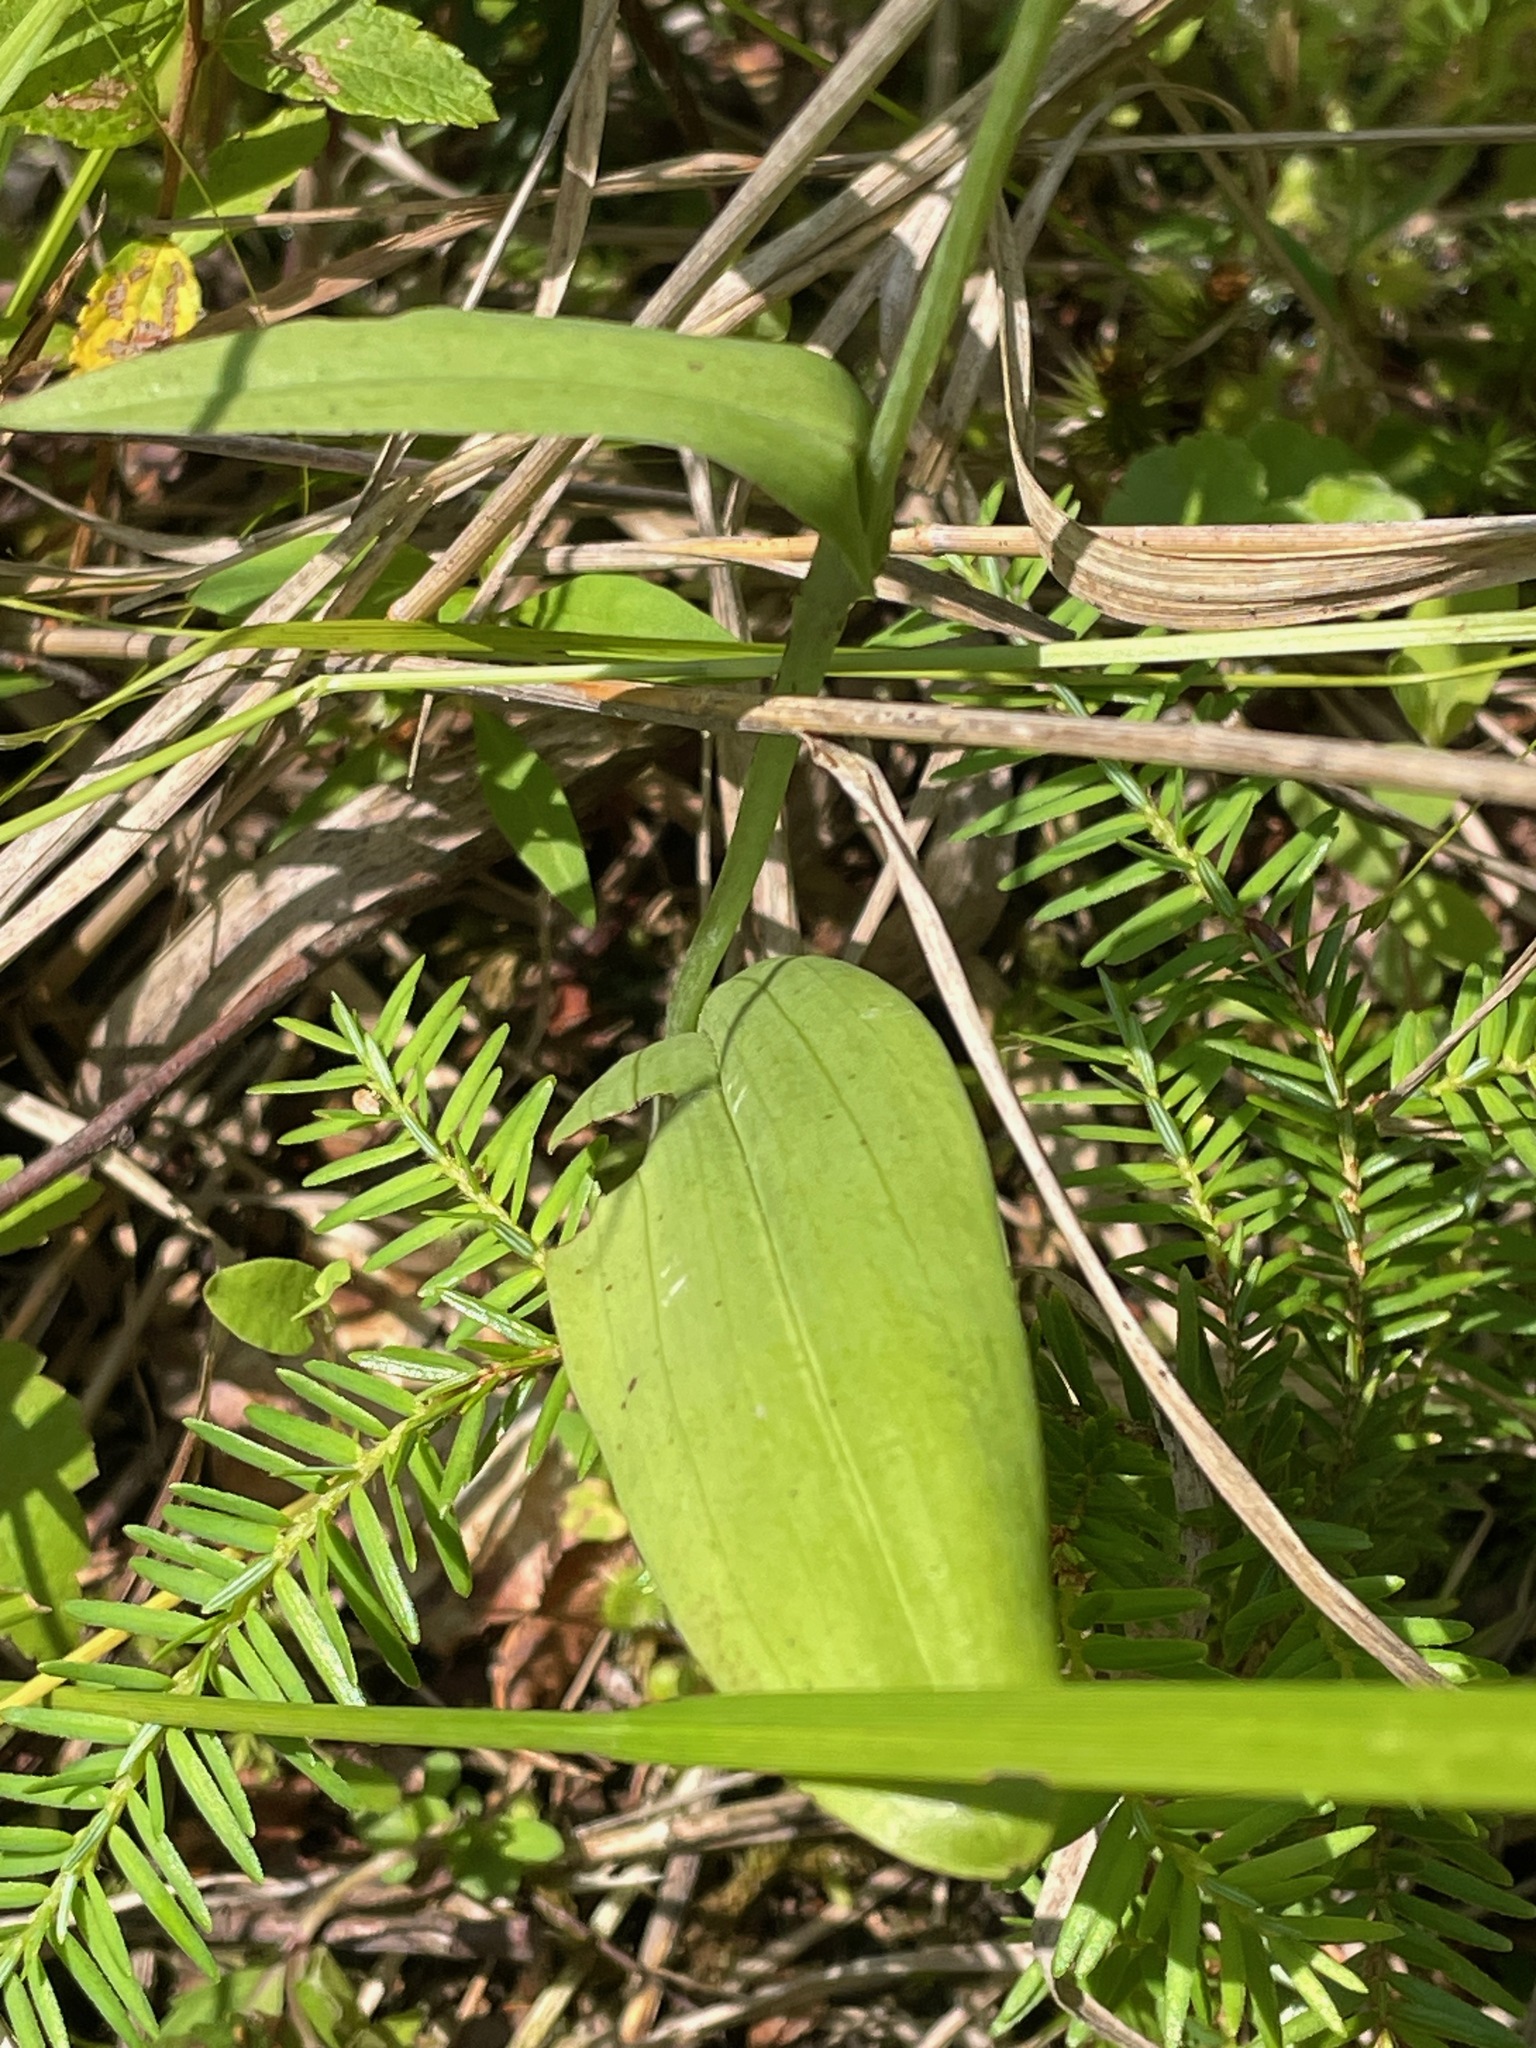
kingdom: Plantae
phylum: Tracheophyta
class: Liliopsida
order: Asparagales
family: Orchidaceae
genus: Platanthera
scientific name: Platanthera clavellata
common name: Club-spur orchid
